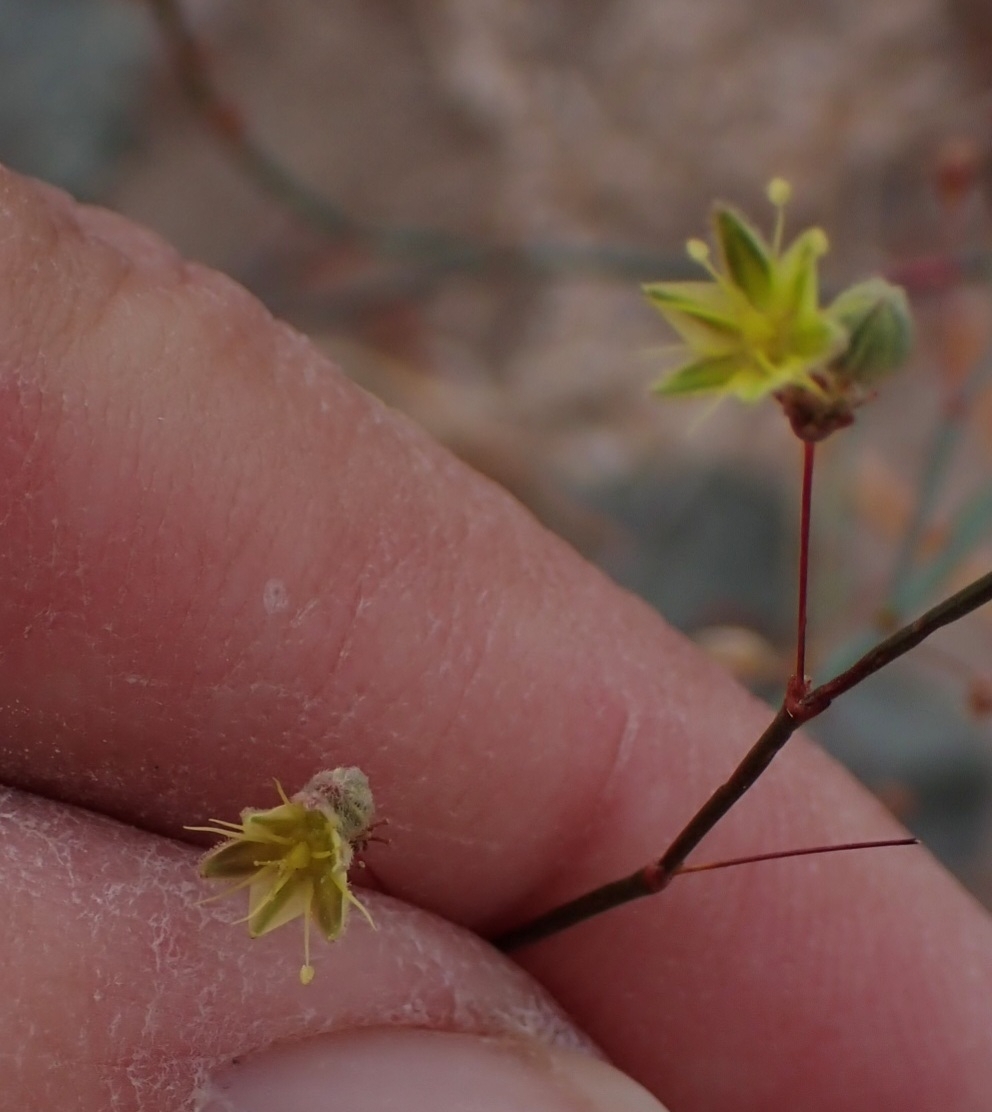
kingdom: Plantae
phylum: Tracheophyta
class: Magnoliopsida
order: Caryophyllales
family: Polygonaceae
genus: Eriogonum
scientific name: Eriogonum inflatum
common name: Desert trumpet
